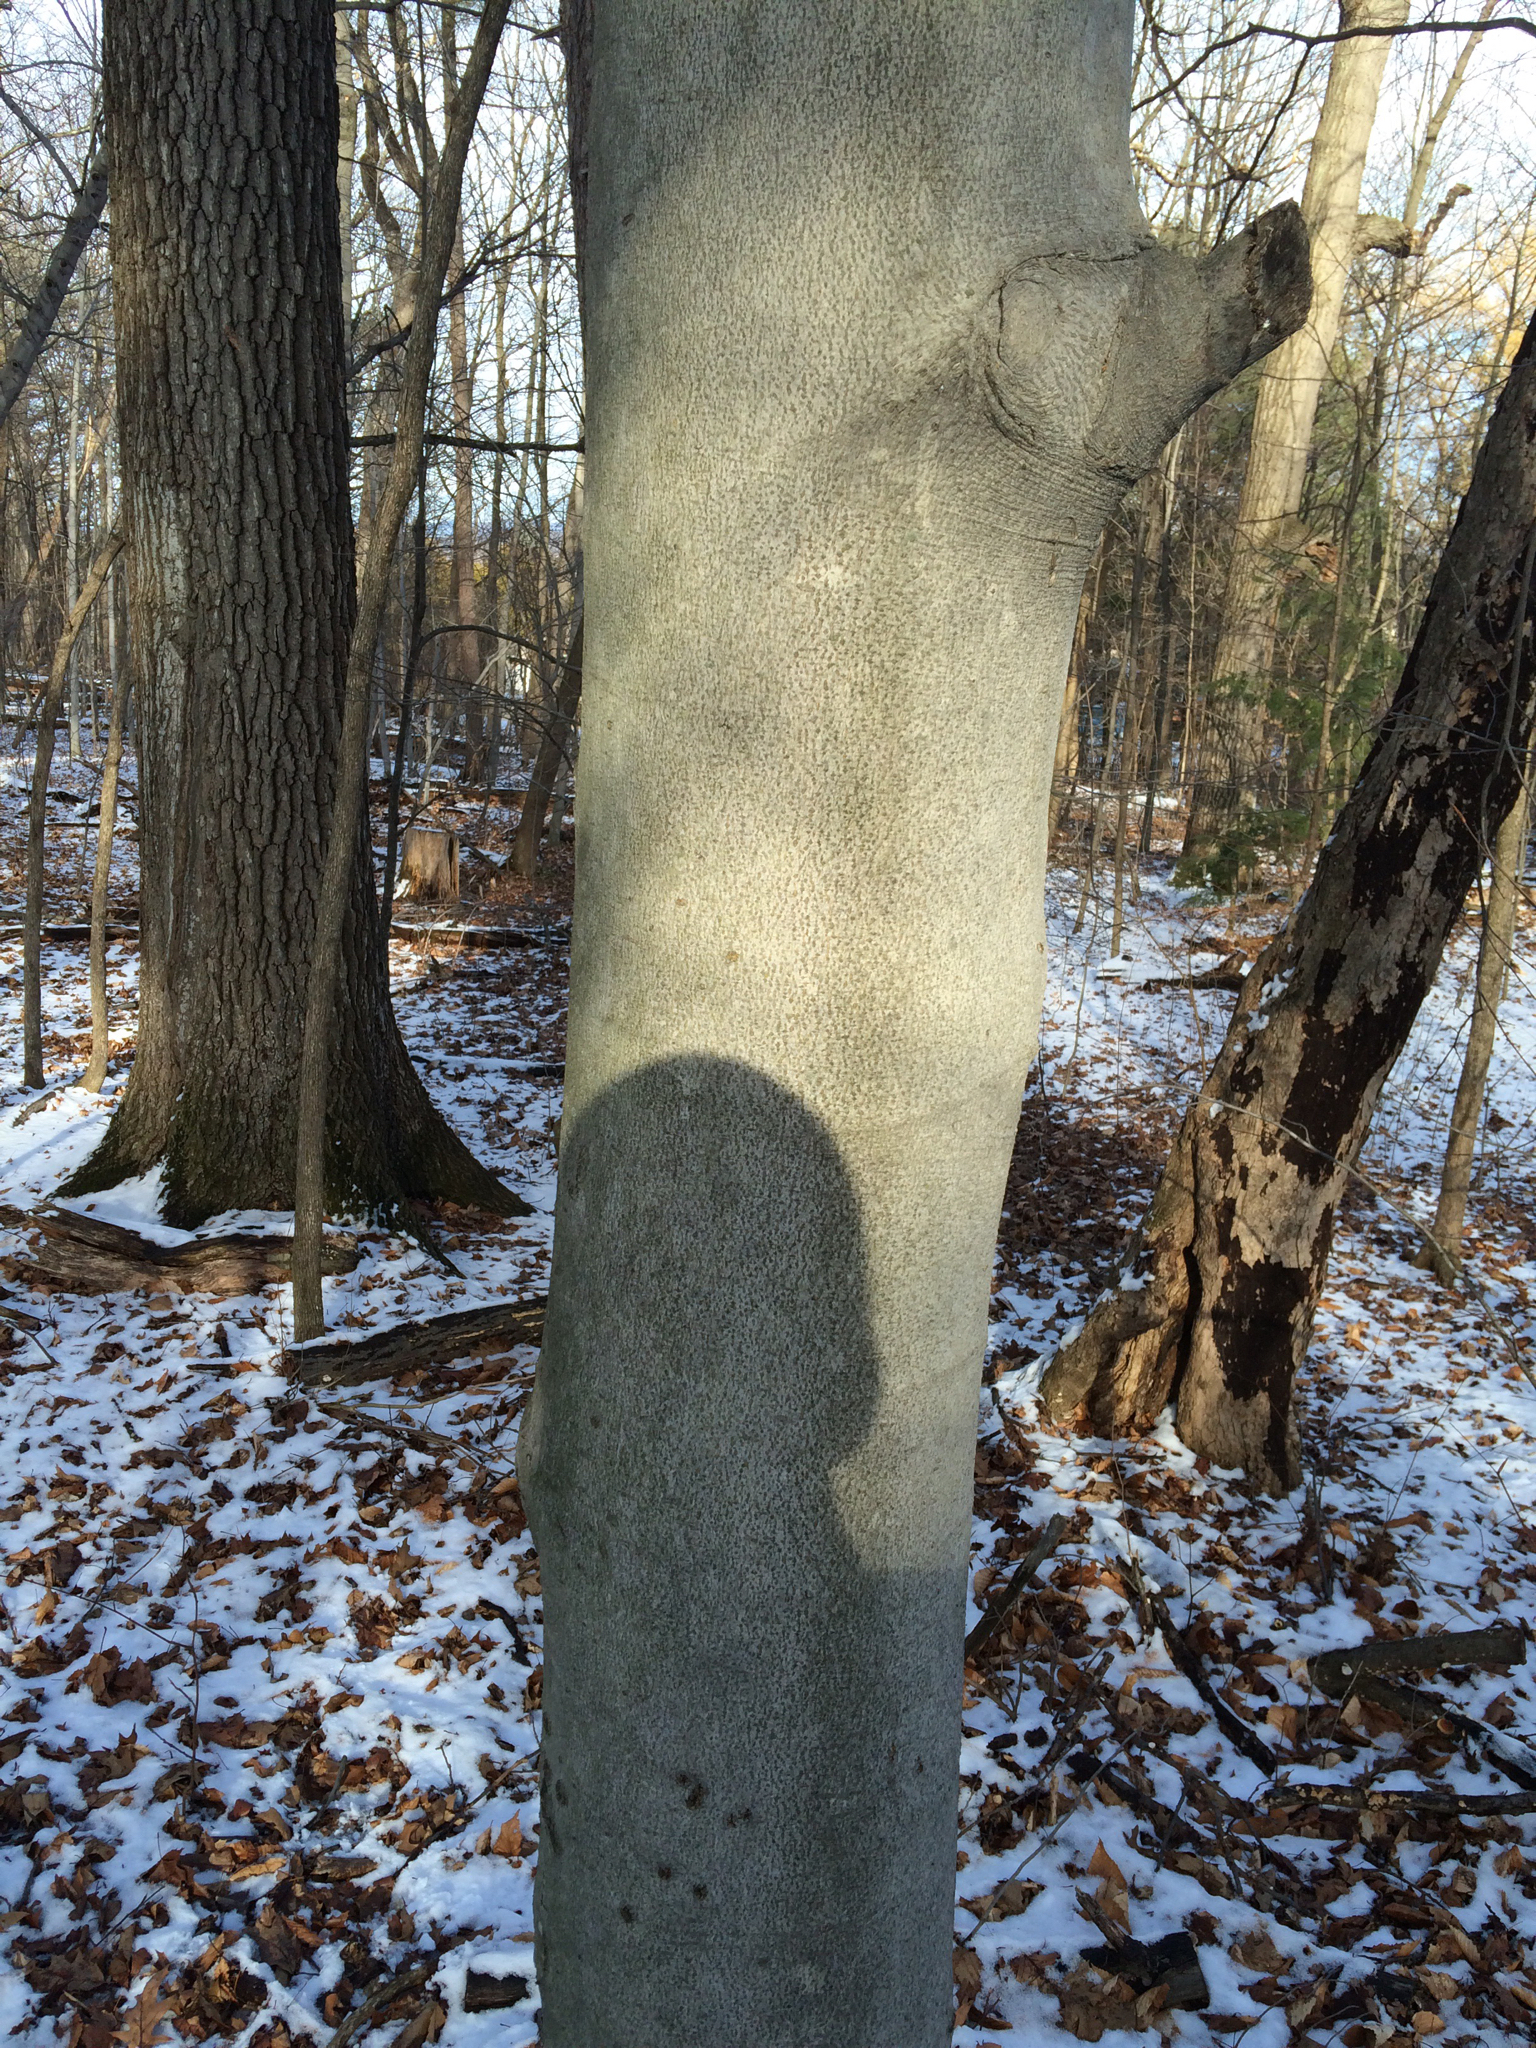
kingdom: Plantae
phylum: Tracheophyta
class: Magnoliopsida
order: Fagales
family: Fagaceae
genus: Fagus
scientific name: Fagus grandifolia
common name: American beech
